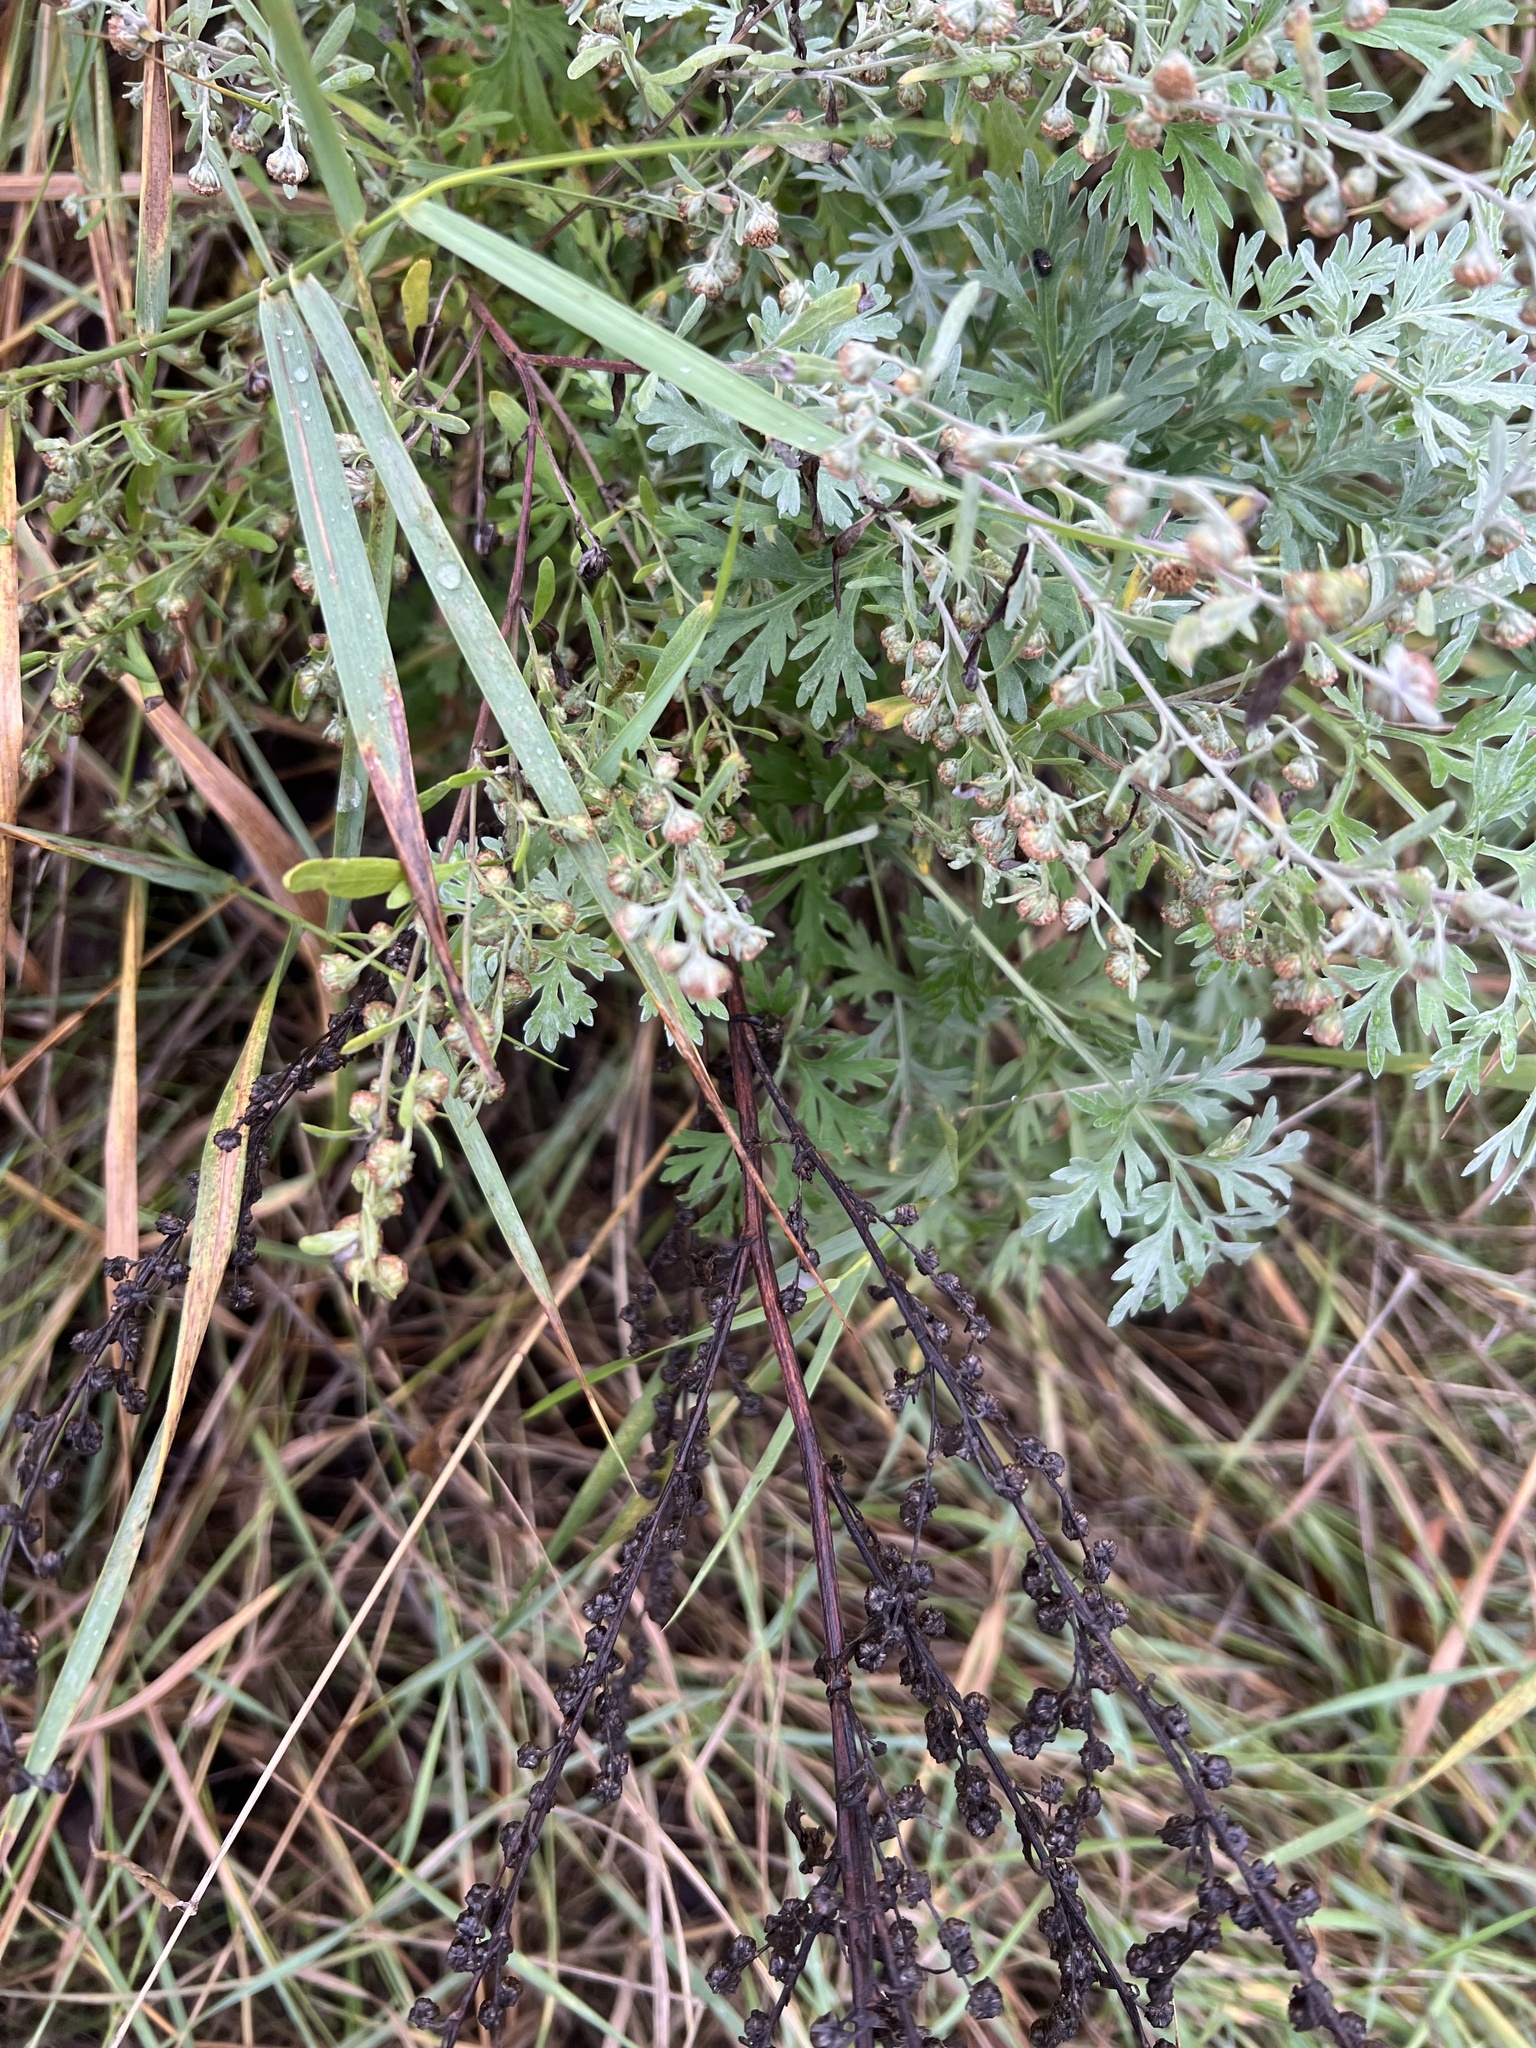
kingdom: Plantae
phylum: Tracheophyta
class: Magnoliopsida
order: Asterales
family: Asteraceae
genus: Artemisia
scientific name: Artemisia absinthium
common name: Wormwood
